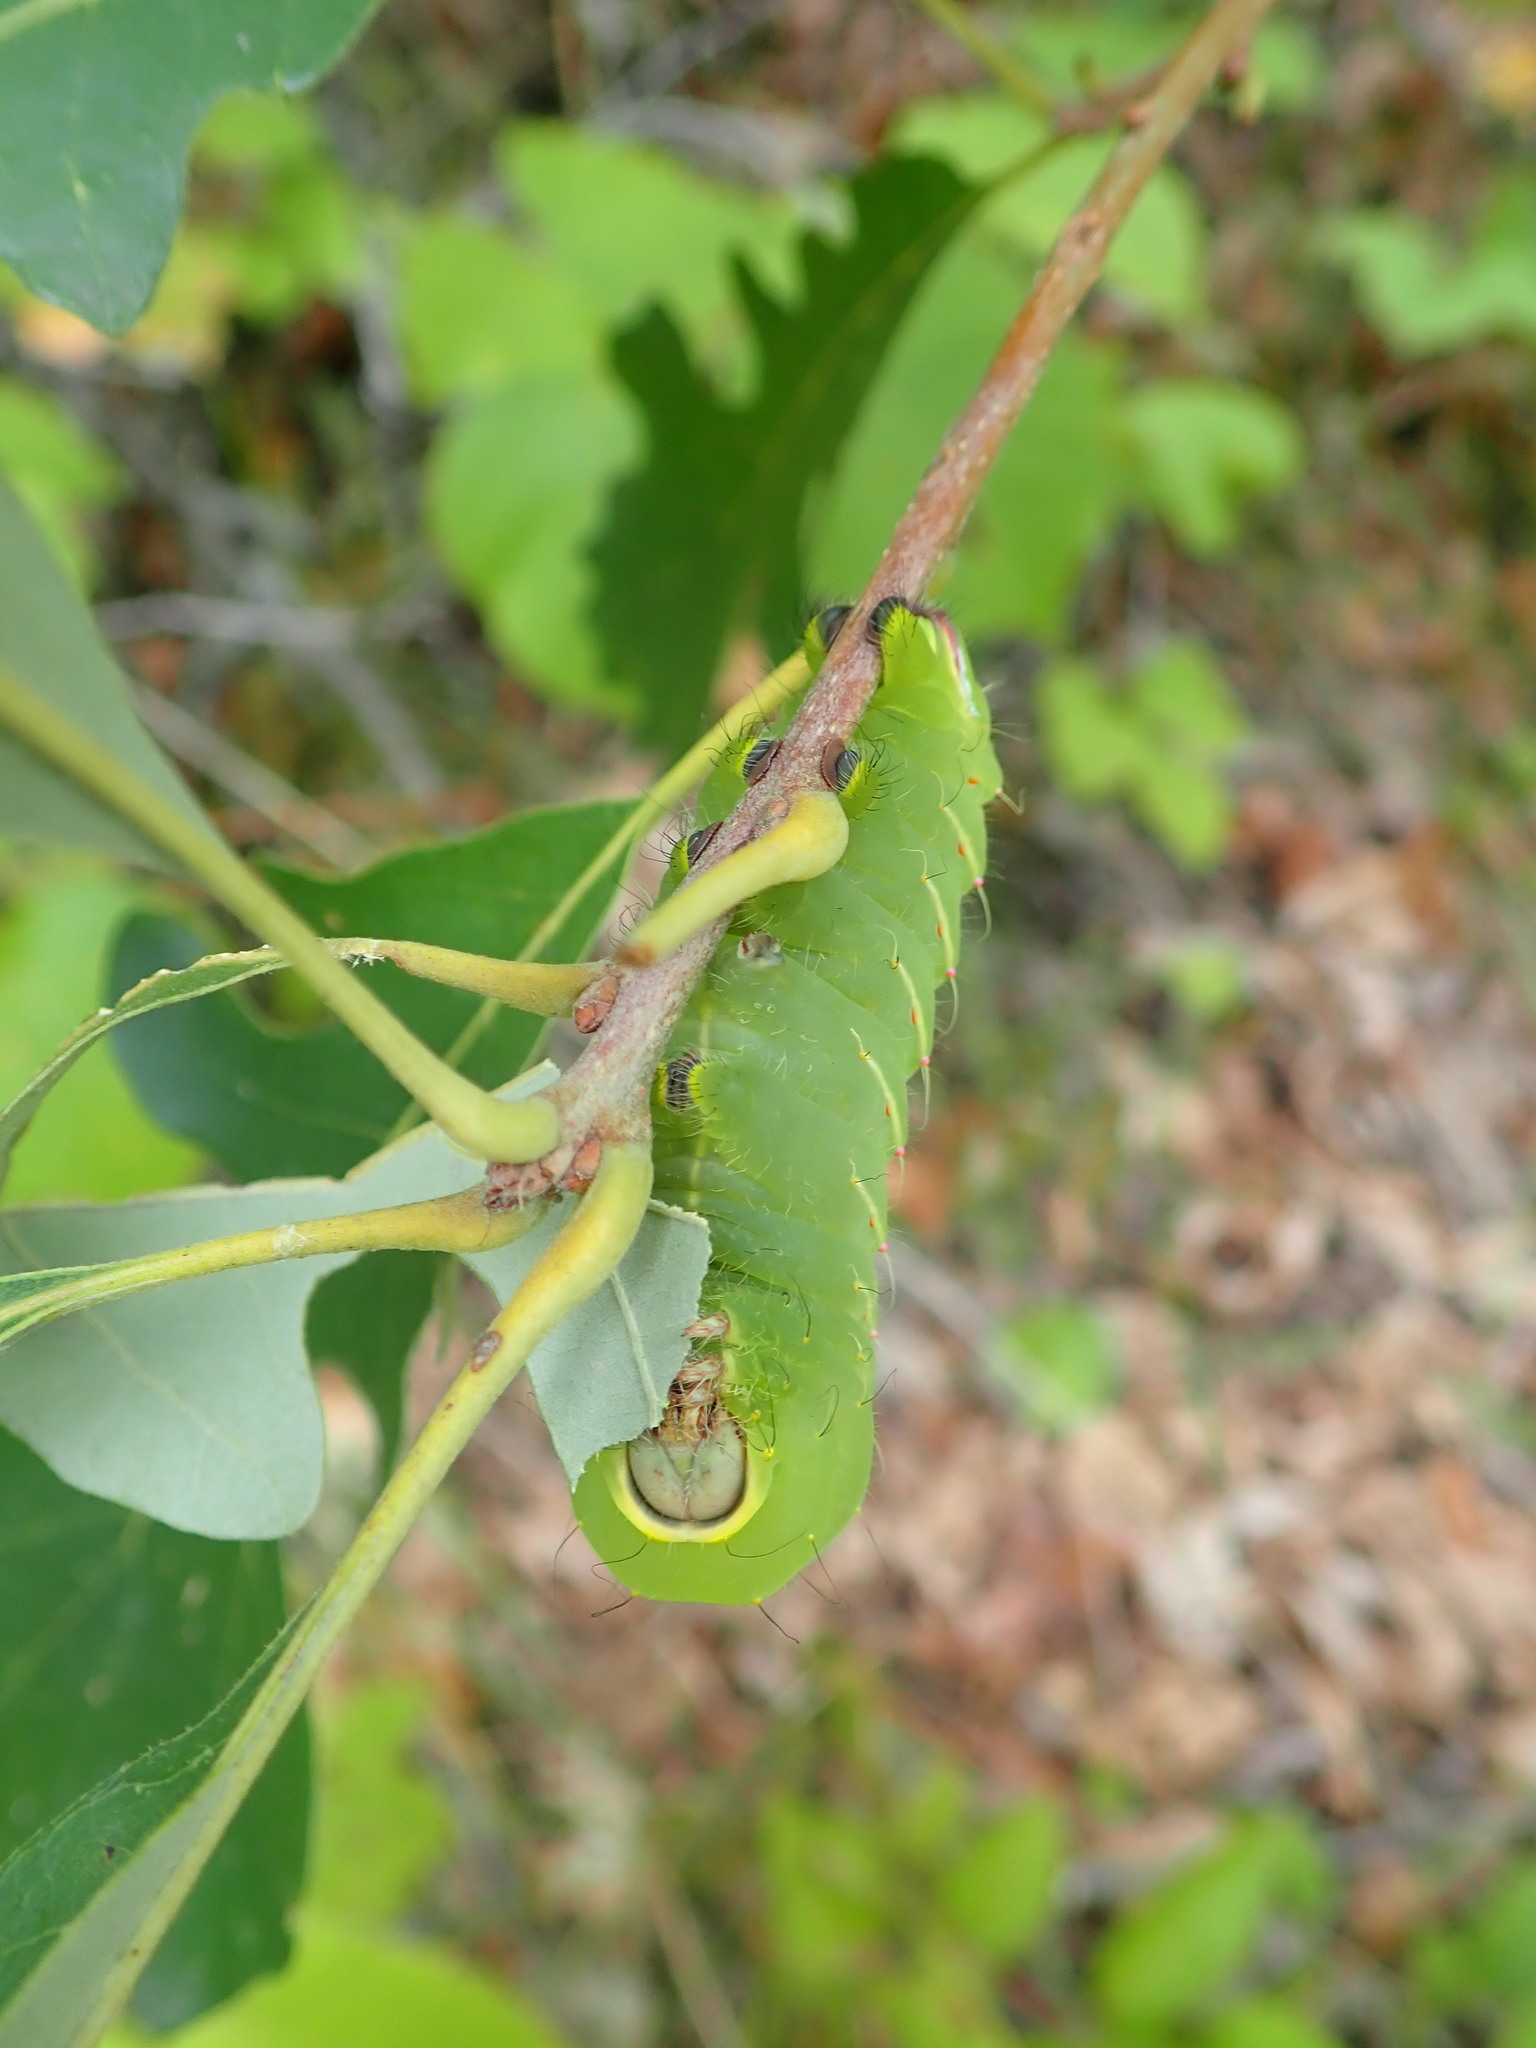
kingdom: Animalia
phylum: Arthropoda
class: Insecta
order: Lepidoptera
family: Saturniidae
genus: Antheraea
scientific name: Antheraea polyphemus
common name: Polyphemus moth
